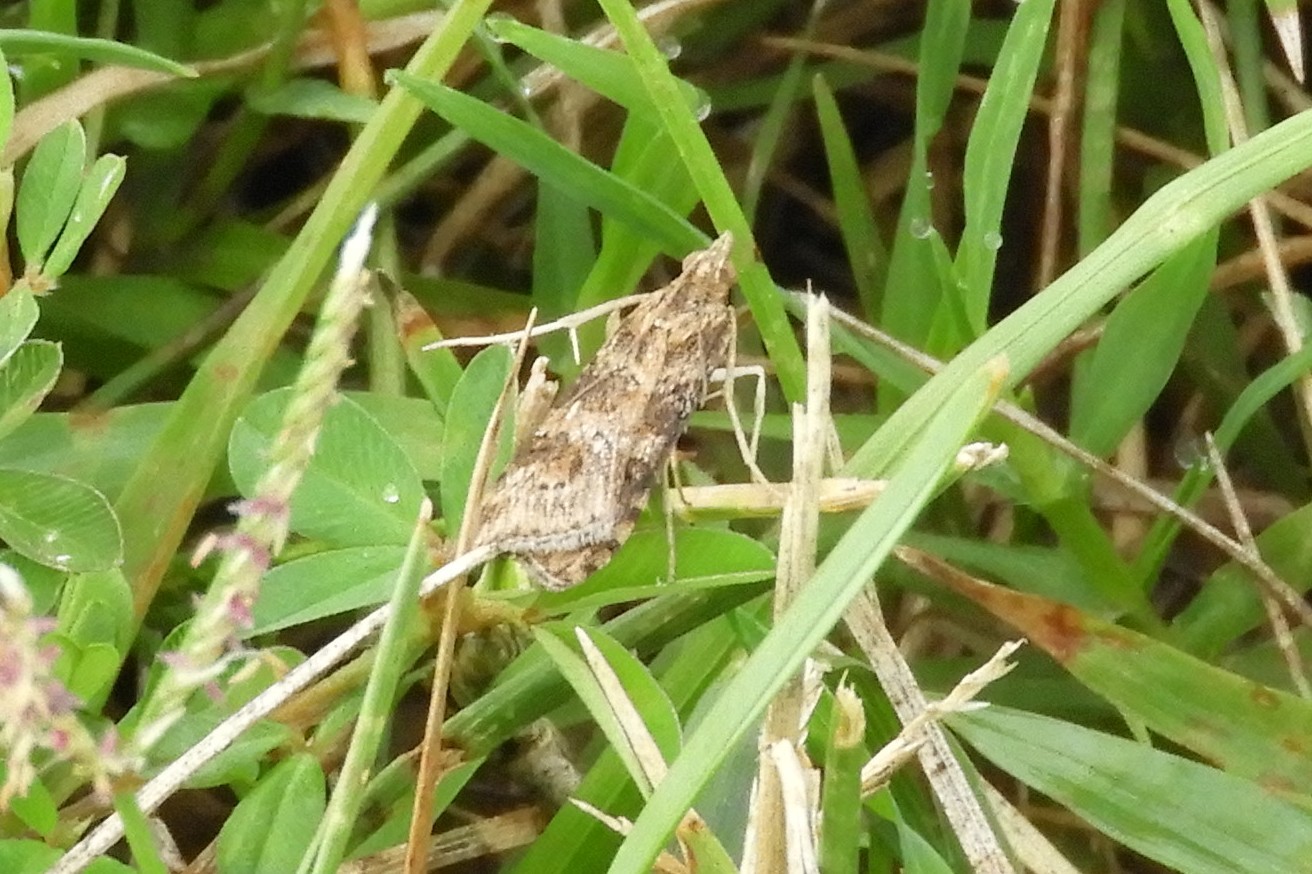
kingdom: Animalia
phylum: Arthropoda
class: Insecta
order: Lepidoptera
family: Crambidae
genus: Nomophila
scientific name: Nomophila nearctica
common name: American rush veneer
